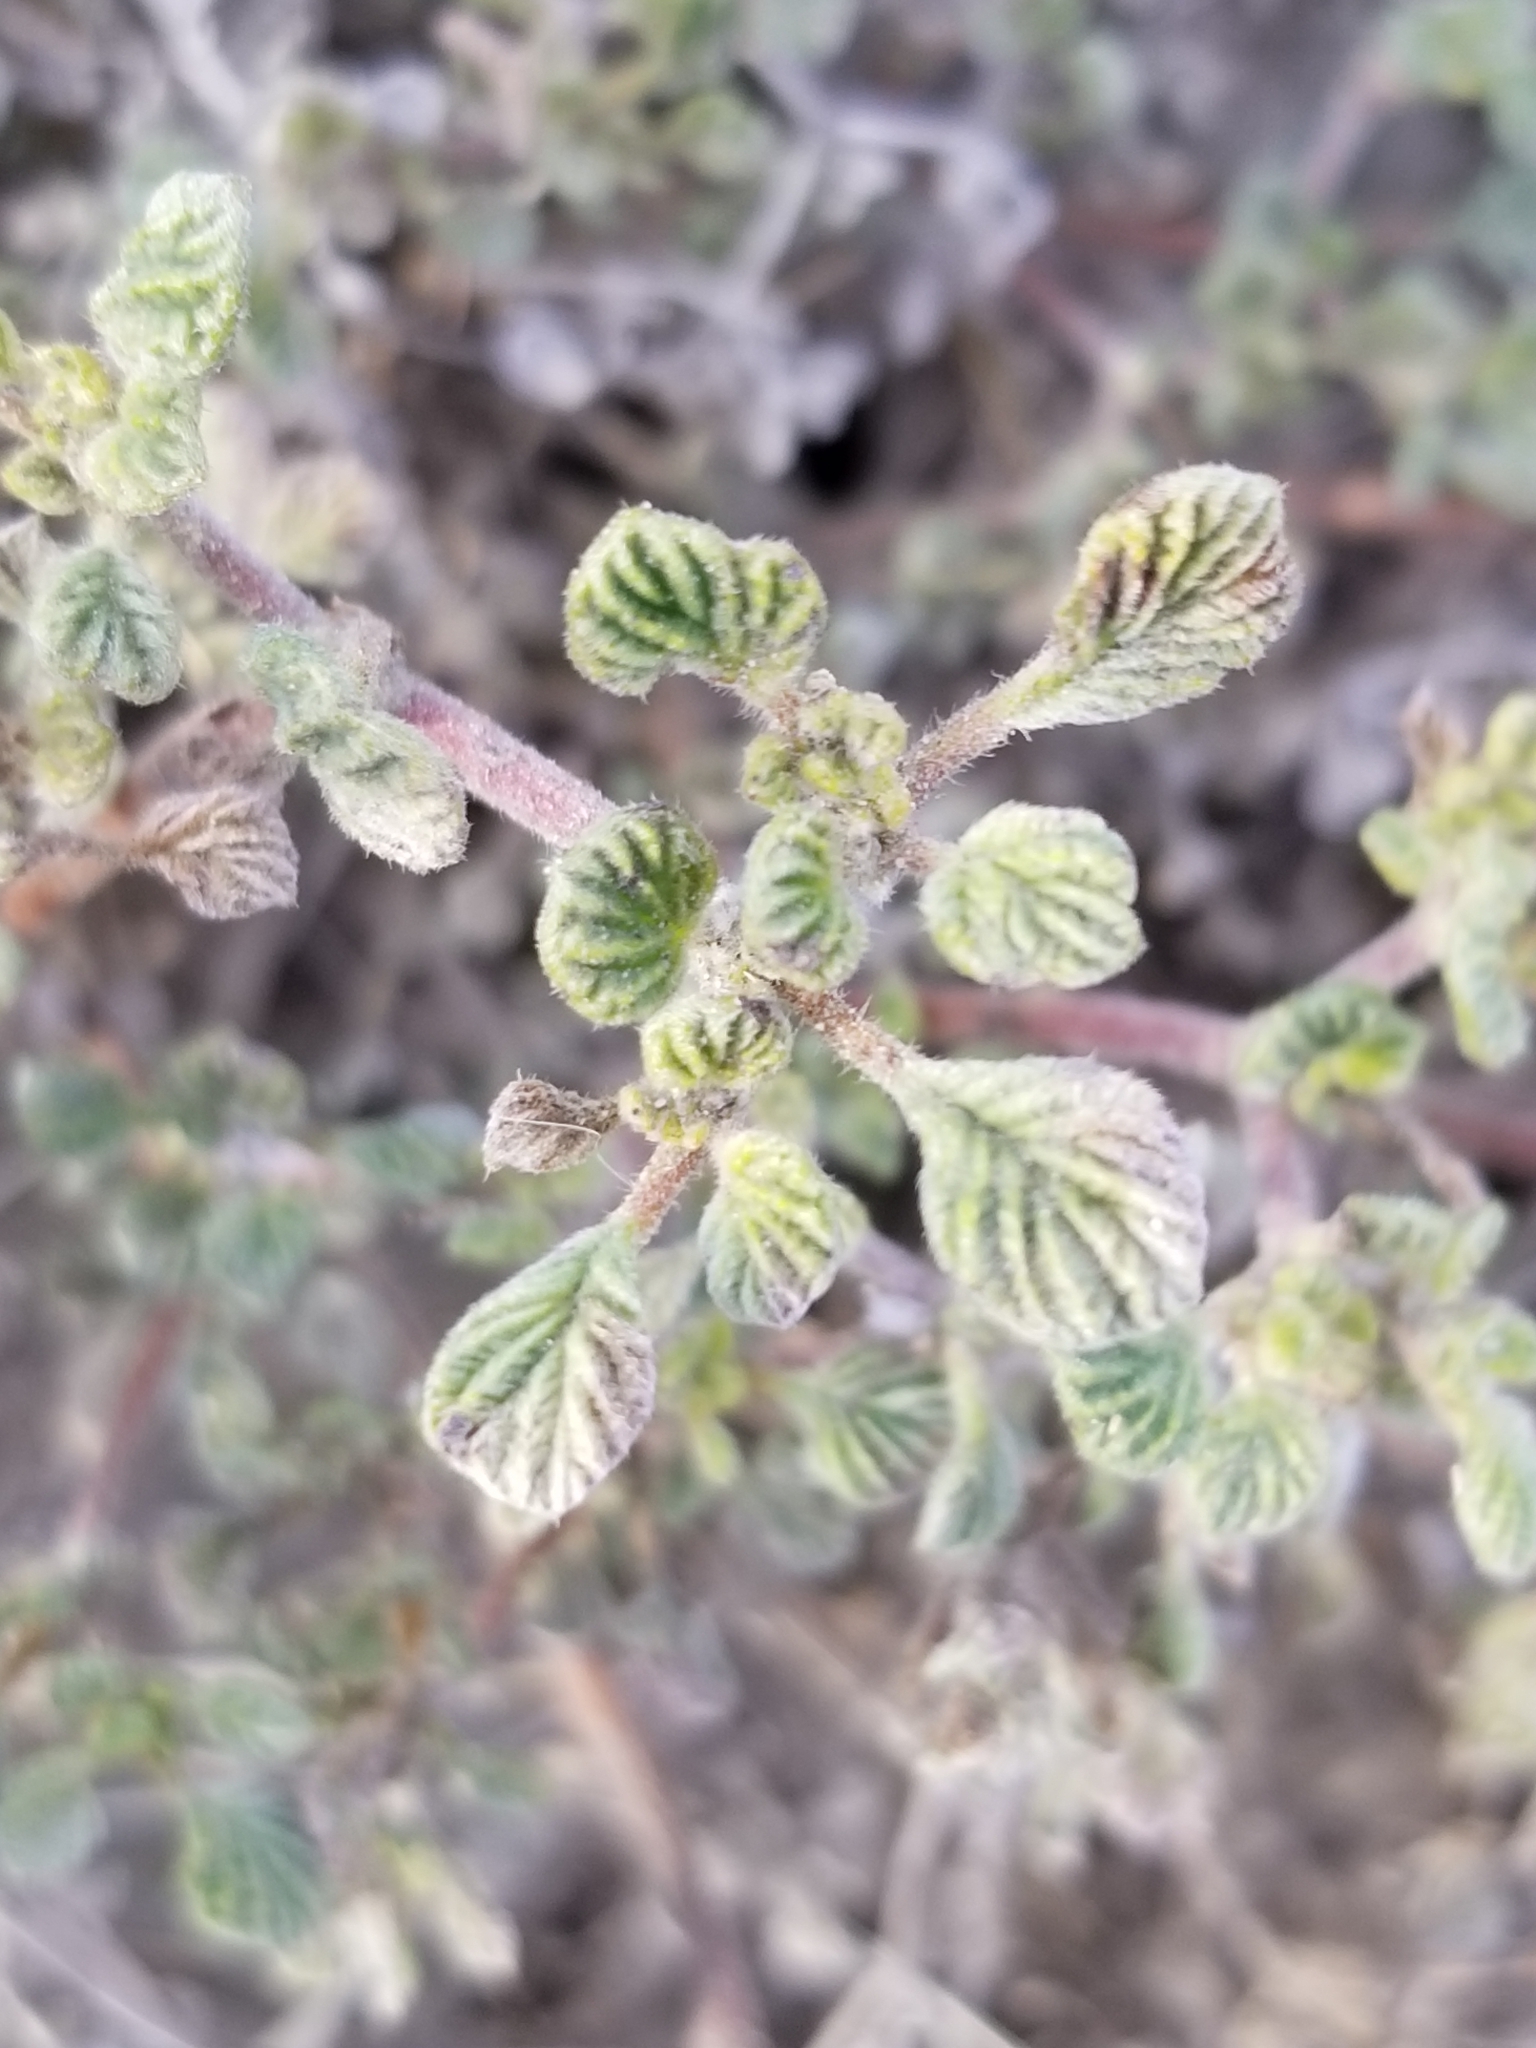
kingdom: Plantae
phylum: Tracheophyta
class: Magnoliopsida
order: Boraginales
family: Ehretiaceae
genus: Tiquilia
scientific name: Tiquilia plicata
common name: Fan-leaf tiquilia
